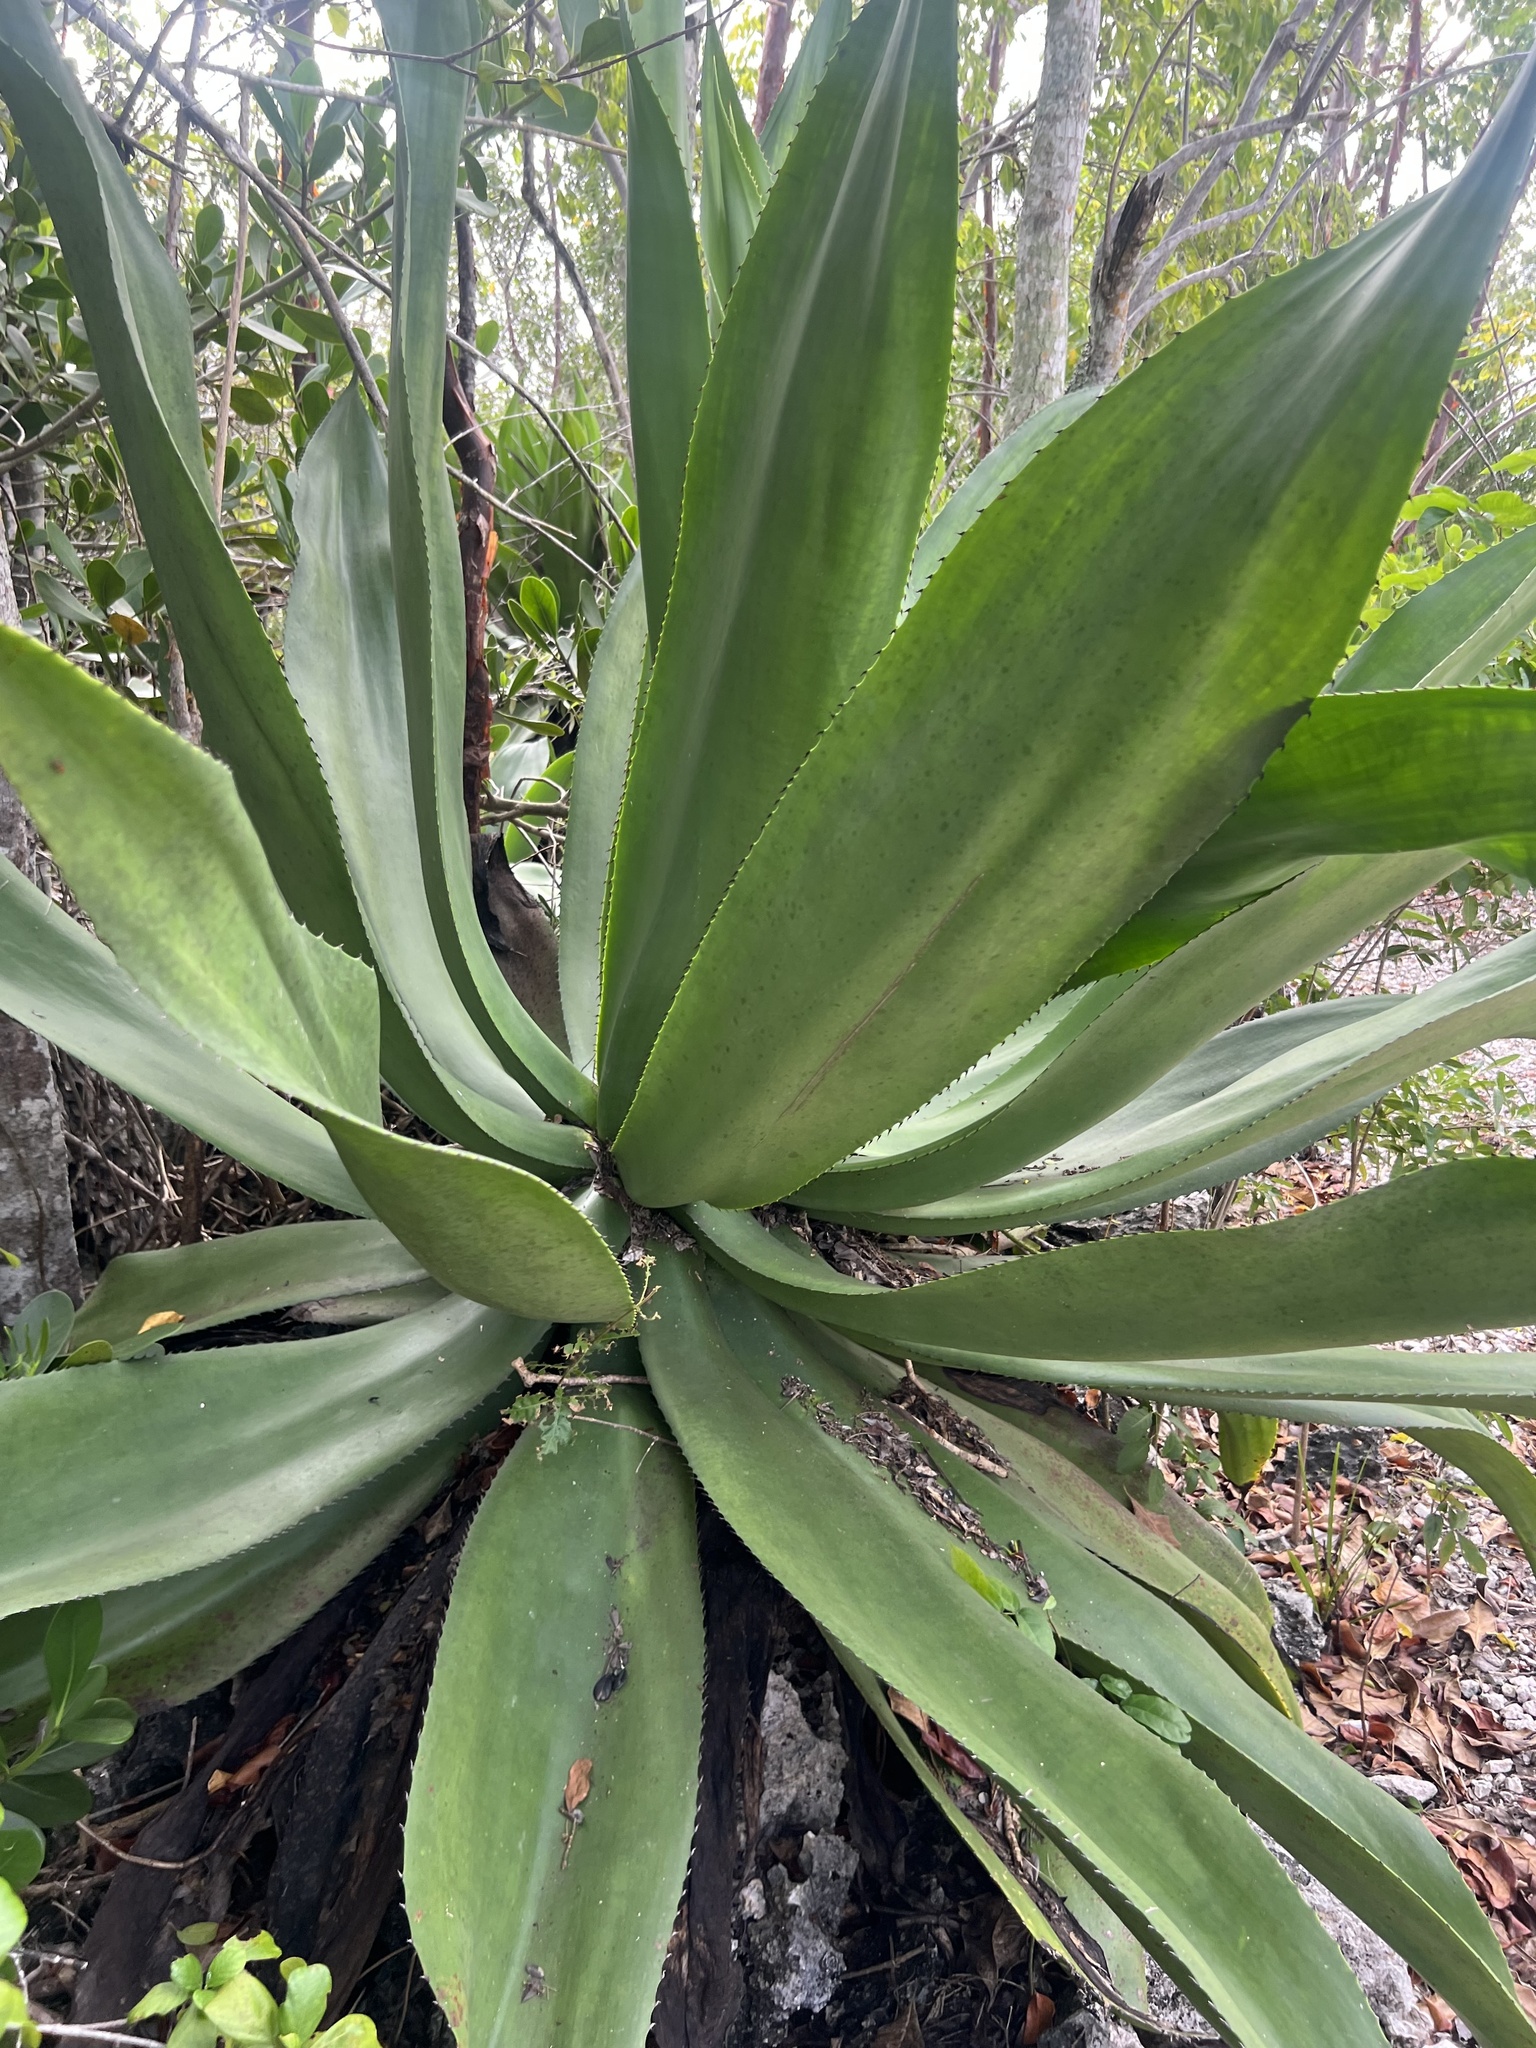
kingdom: Plantae
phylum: Tracheophyta
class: Liliopsida
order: Asparagales
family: Asparagaceae
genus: Agave
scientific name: Agave caymanensis
